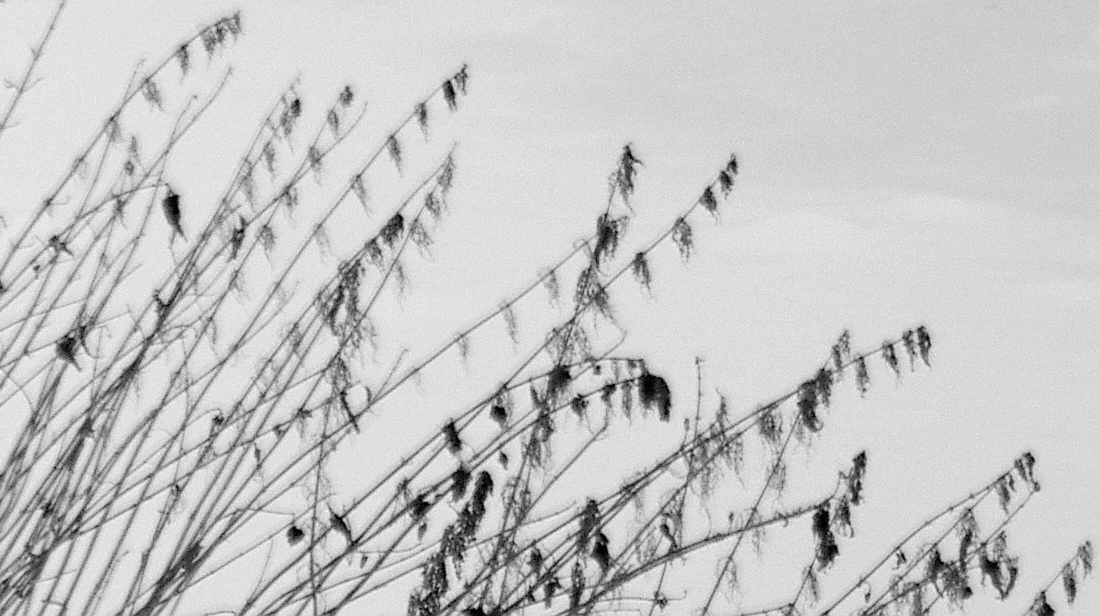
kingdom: Plantae
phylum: Tracheophyta
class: Magnoliopsida
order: Rosales
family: Urticaceae
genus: Urtica
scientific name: Urtica dioica
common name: Common nettle
